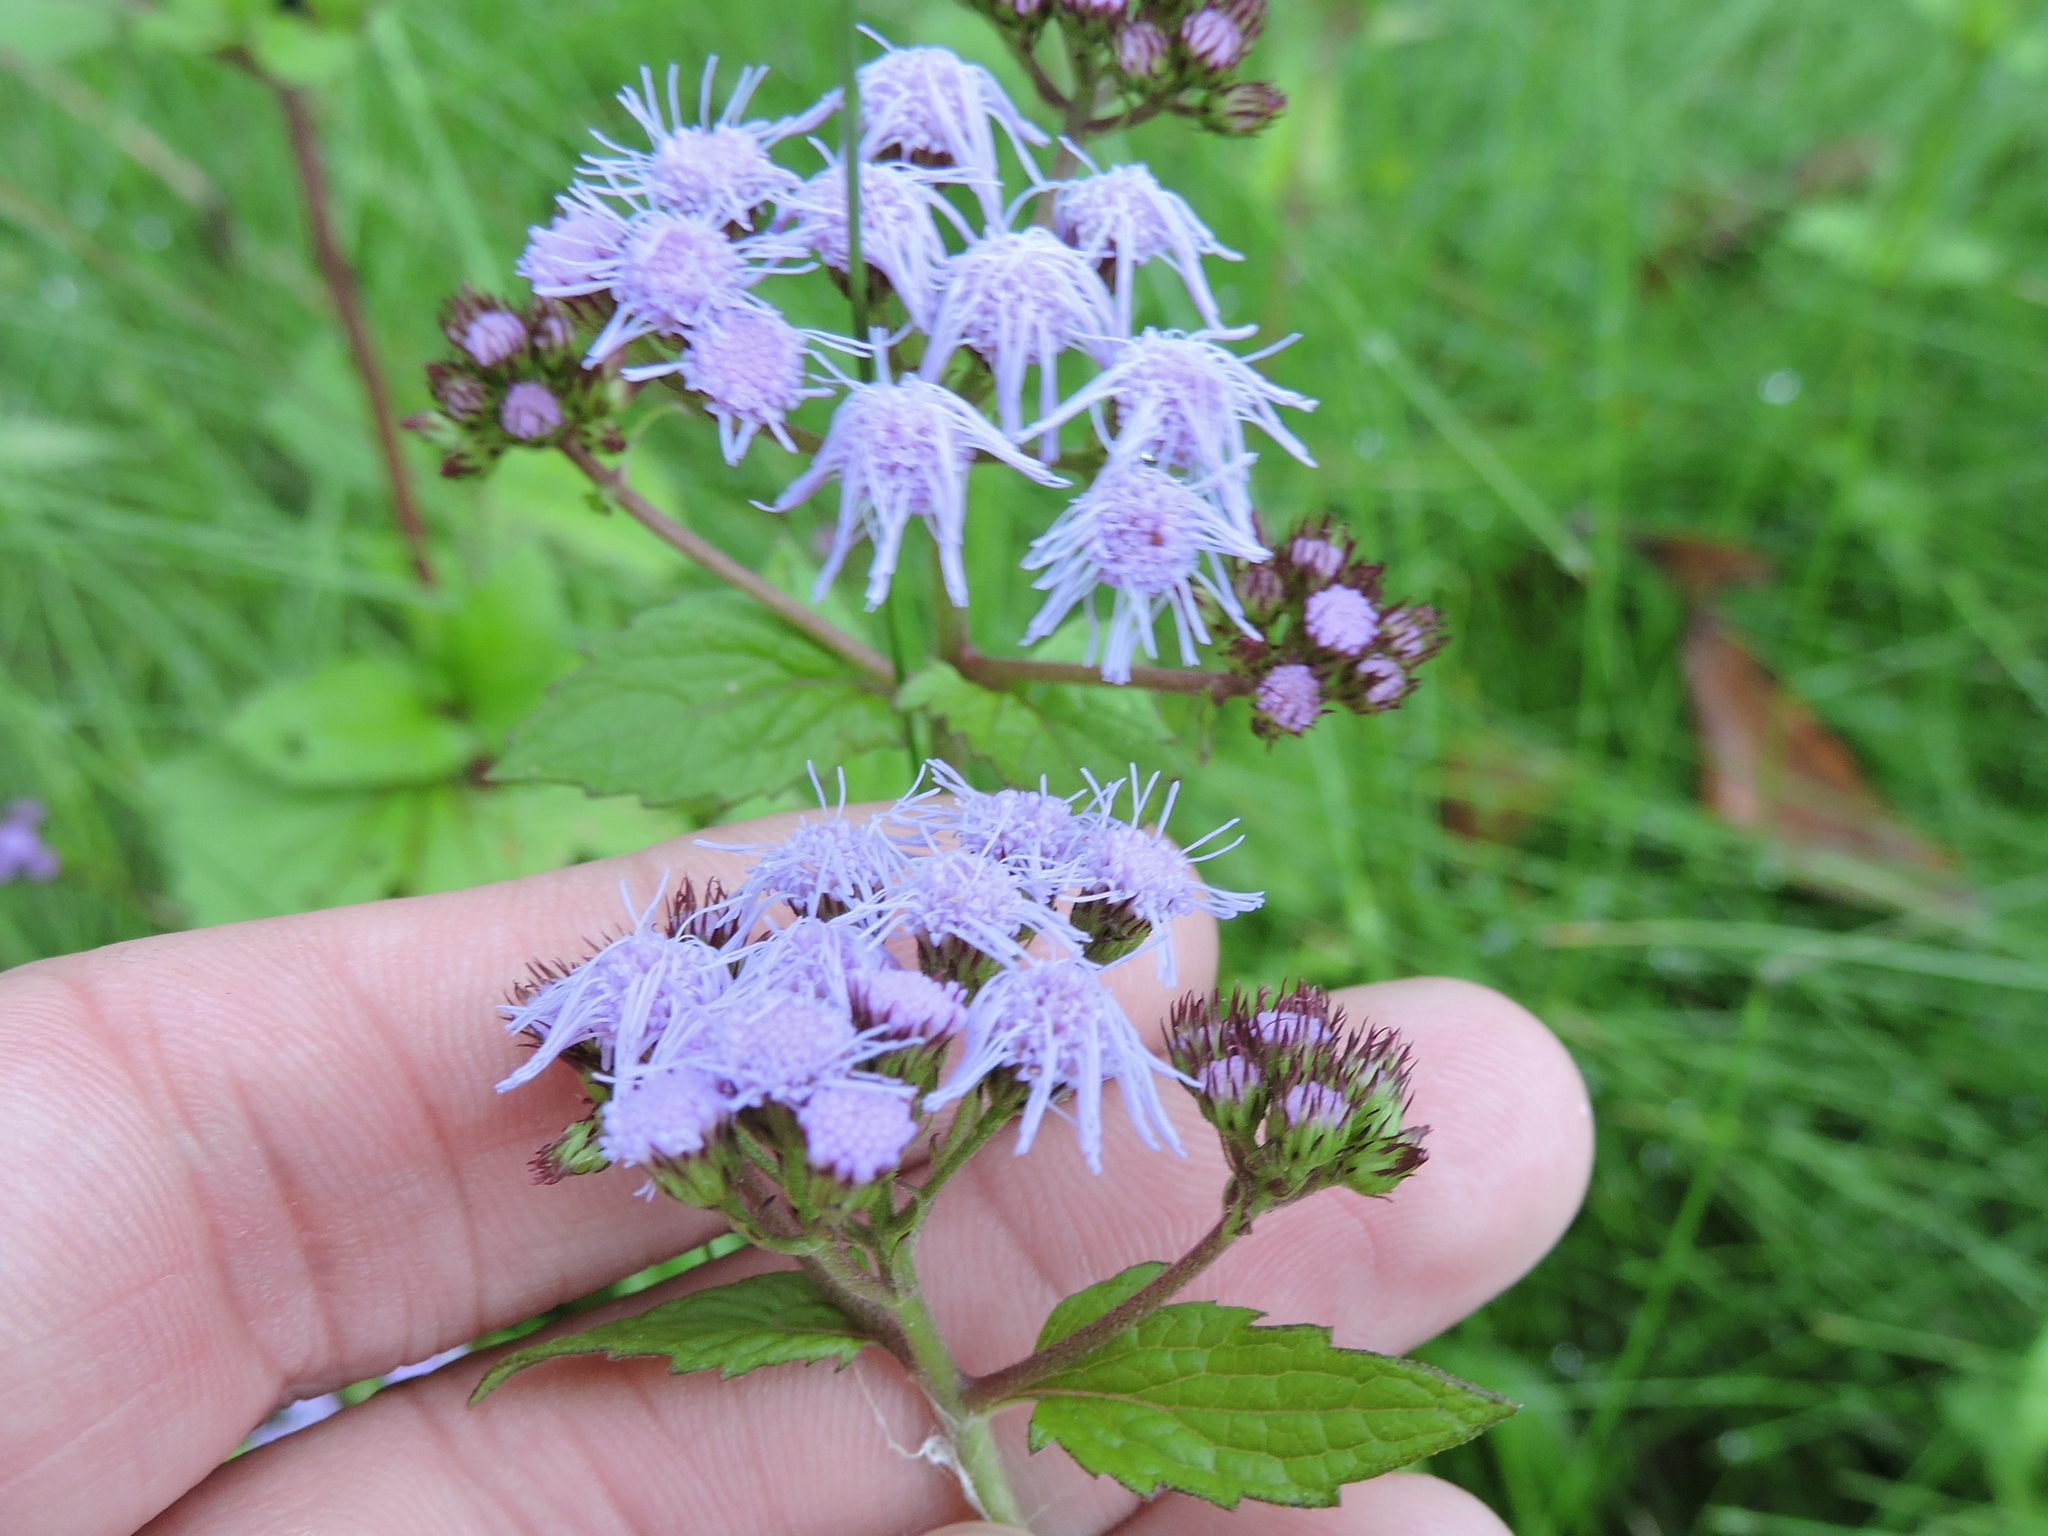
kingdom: Plantae
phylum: Tracheophyta
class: Magnoliopsida
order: Asterales
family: Asteraceae
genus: Conoclinium
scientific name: Conoclinium coelestinum
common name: Blue mistflower
